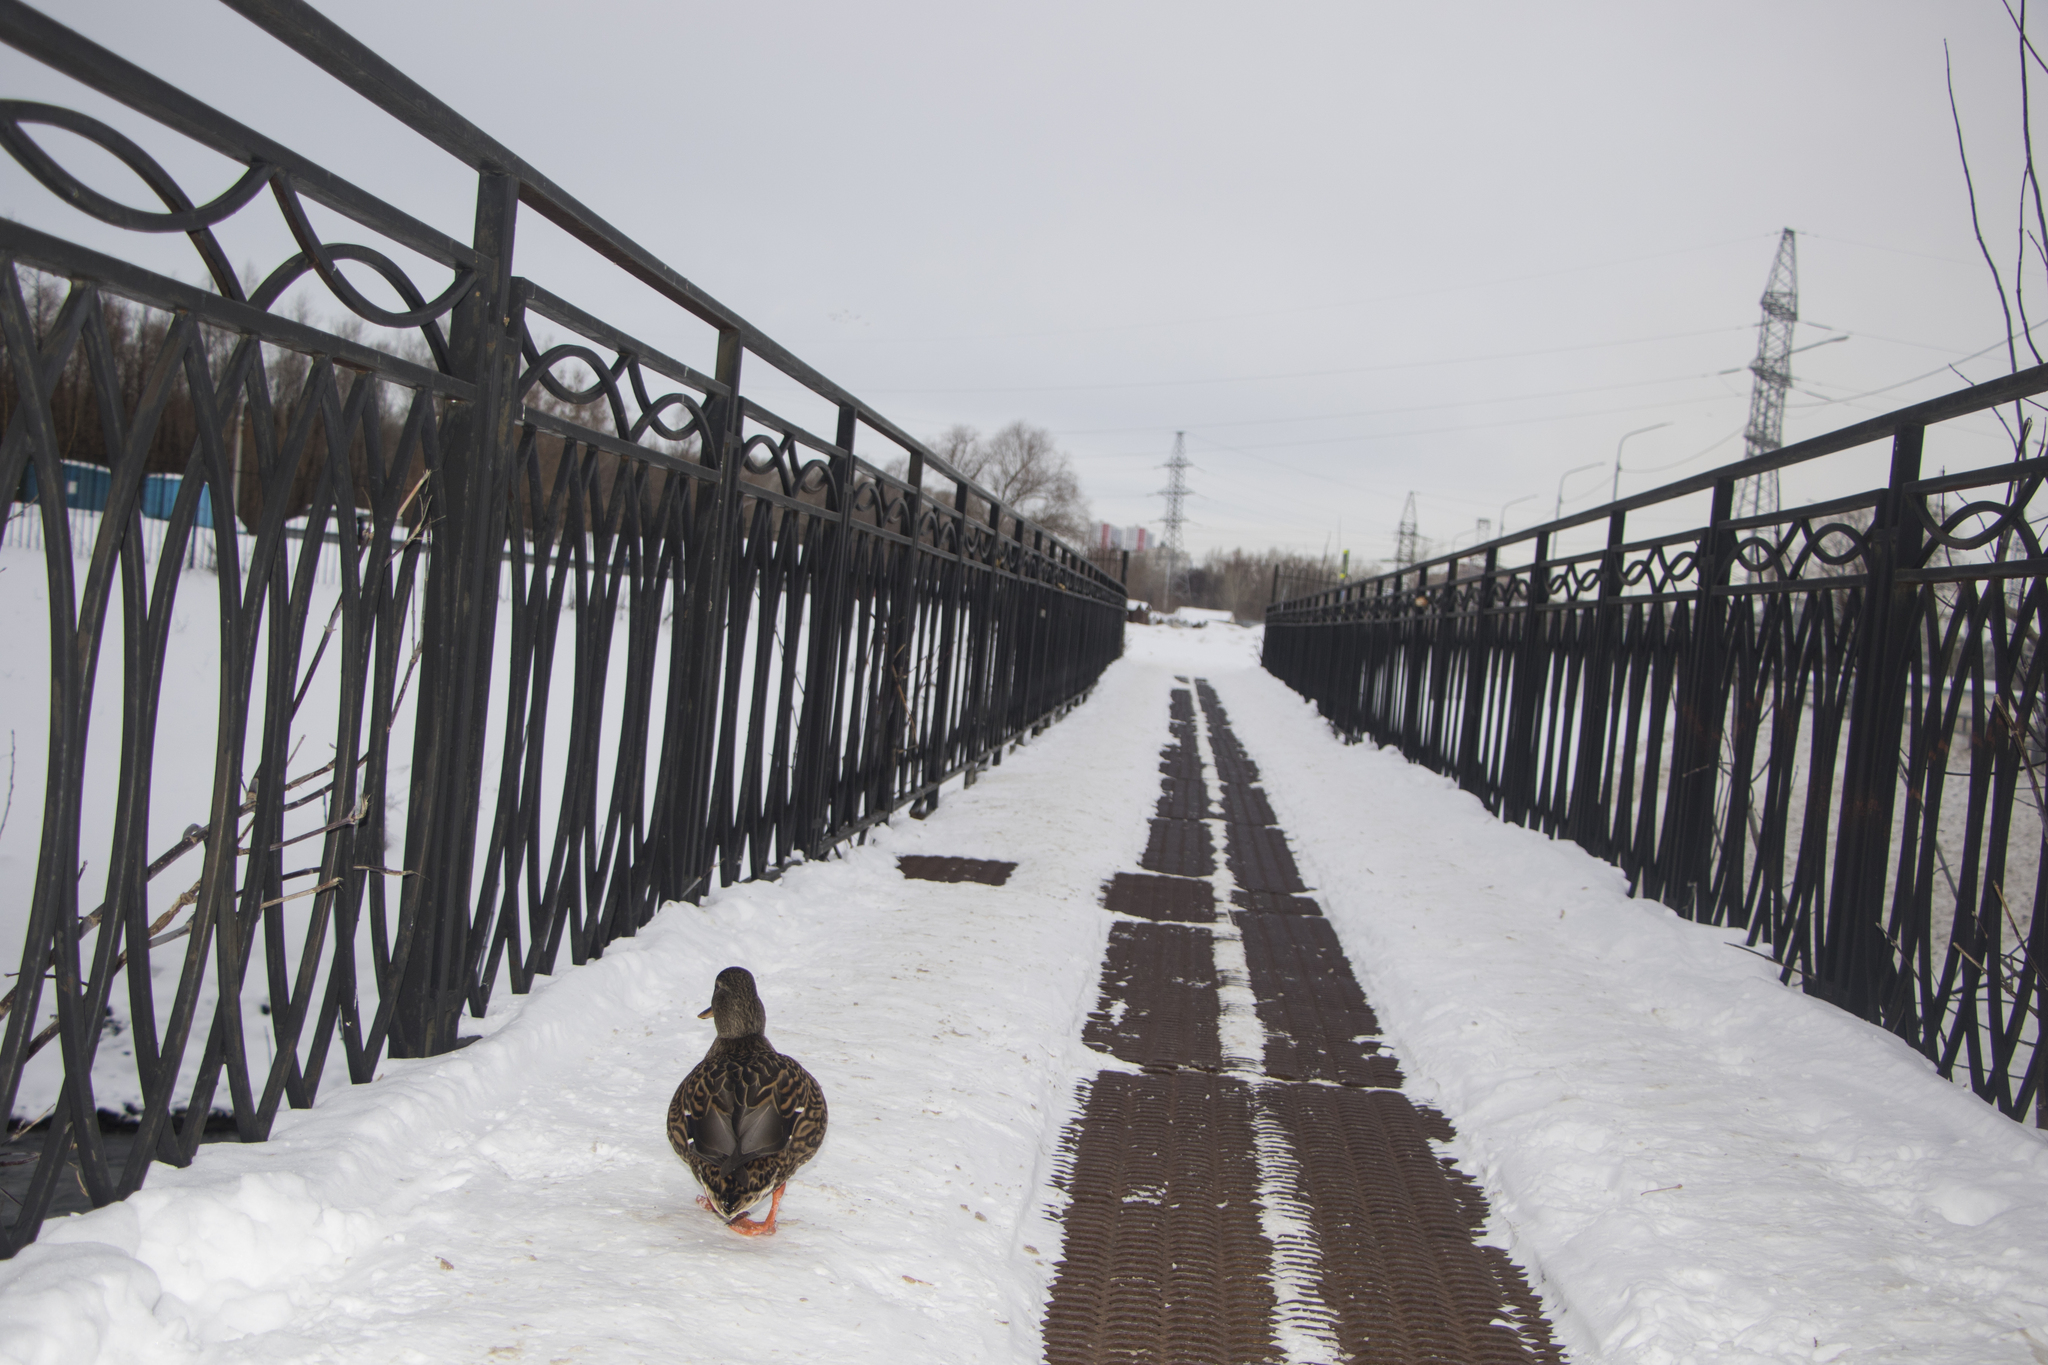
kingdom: Animalia
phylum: Chordata
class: Aves
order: Anseriformes
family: Anatidae
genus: Anas
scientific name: Anas platyrhynchos
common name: Mallard
